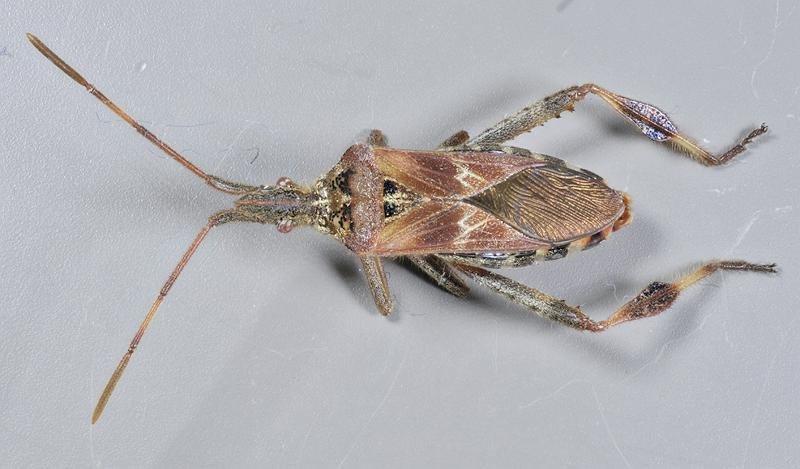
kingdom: Animalia
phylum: Arthropoda
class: Insecta
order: Hemiptera
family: Coreidae
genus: Leptoglossus
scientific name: Leptoglossus occidentalis
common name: Western conifer-seed bug
